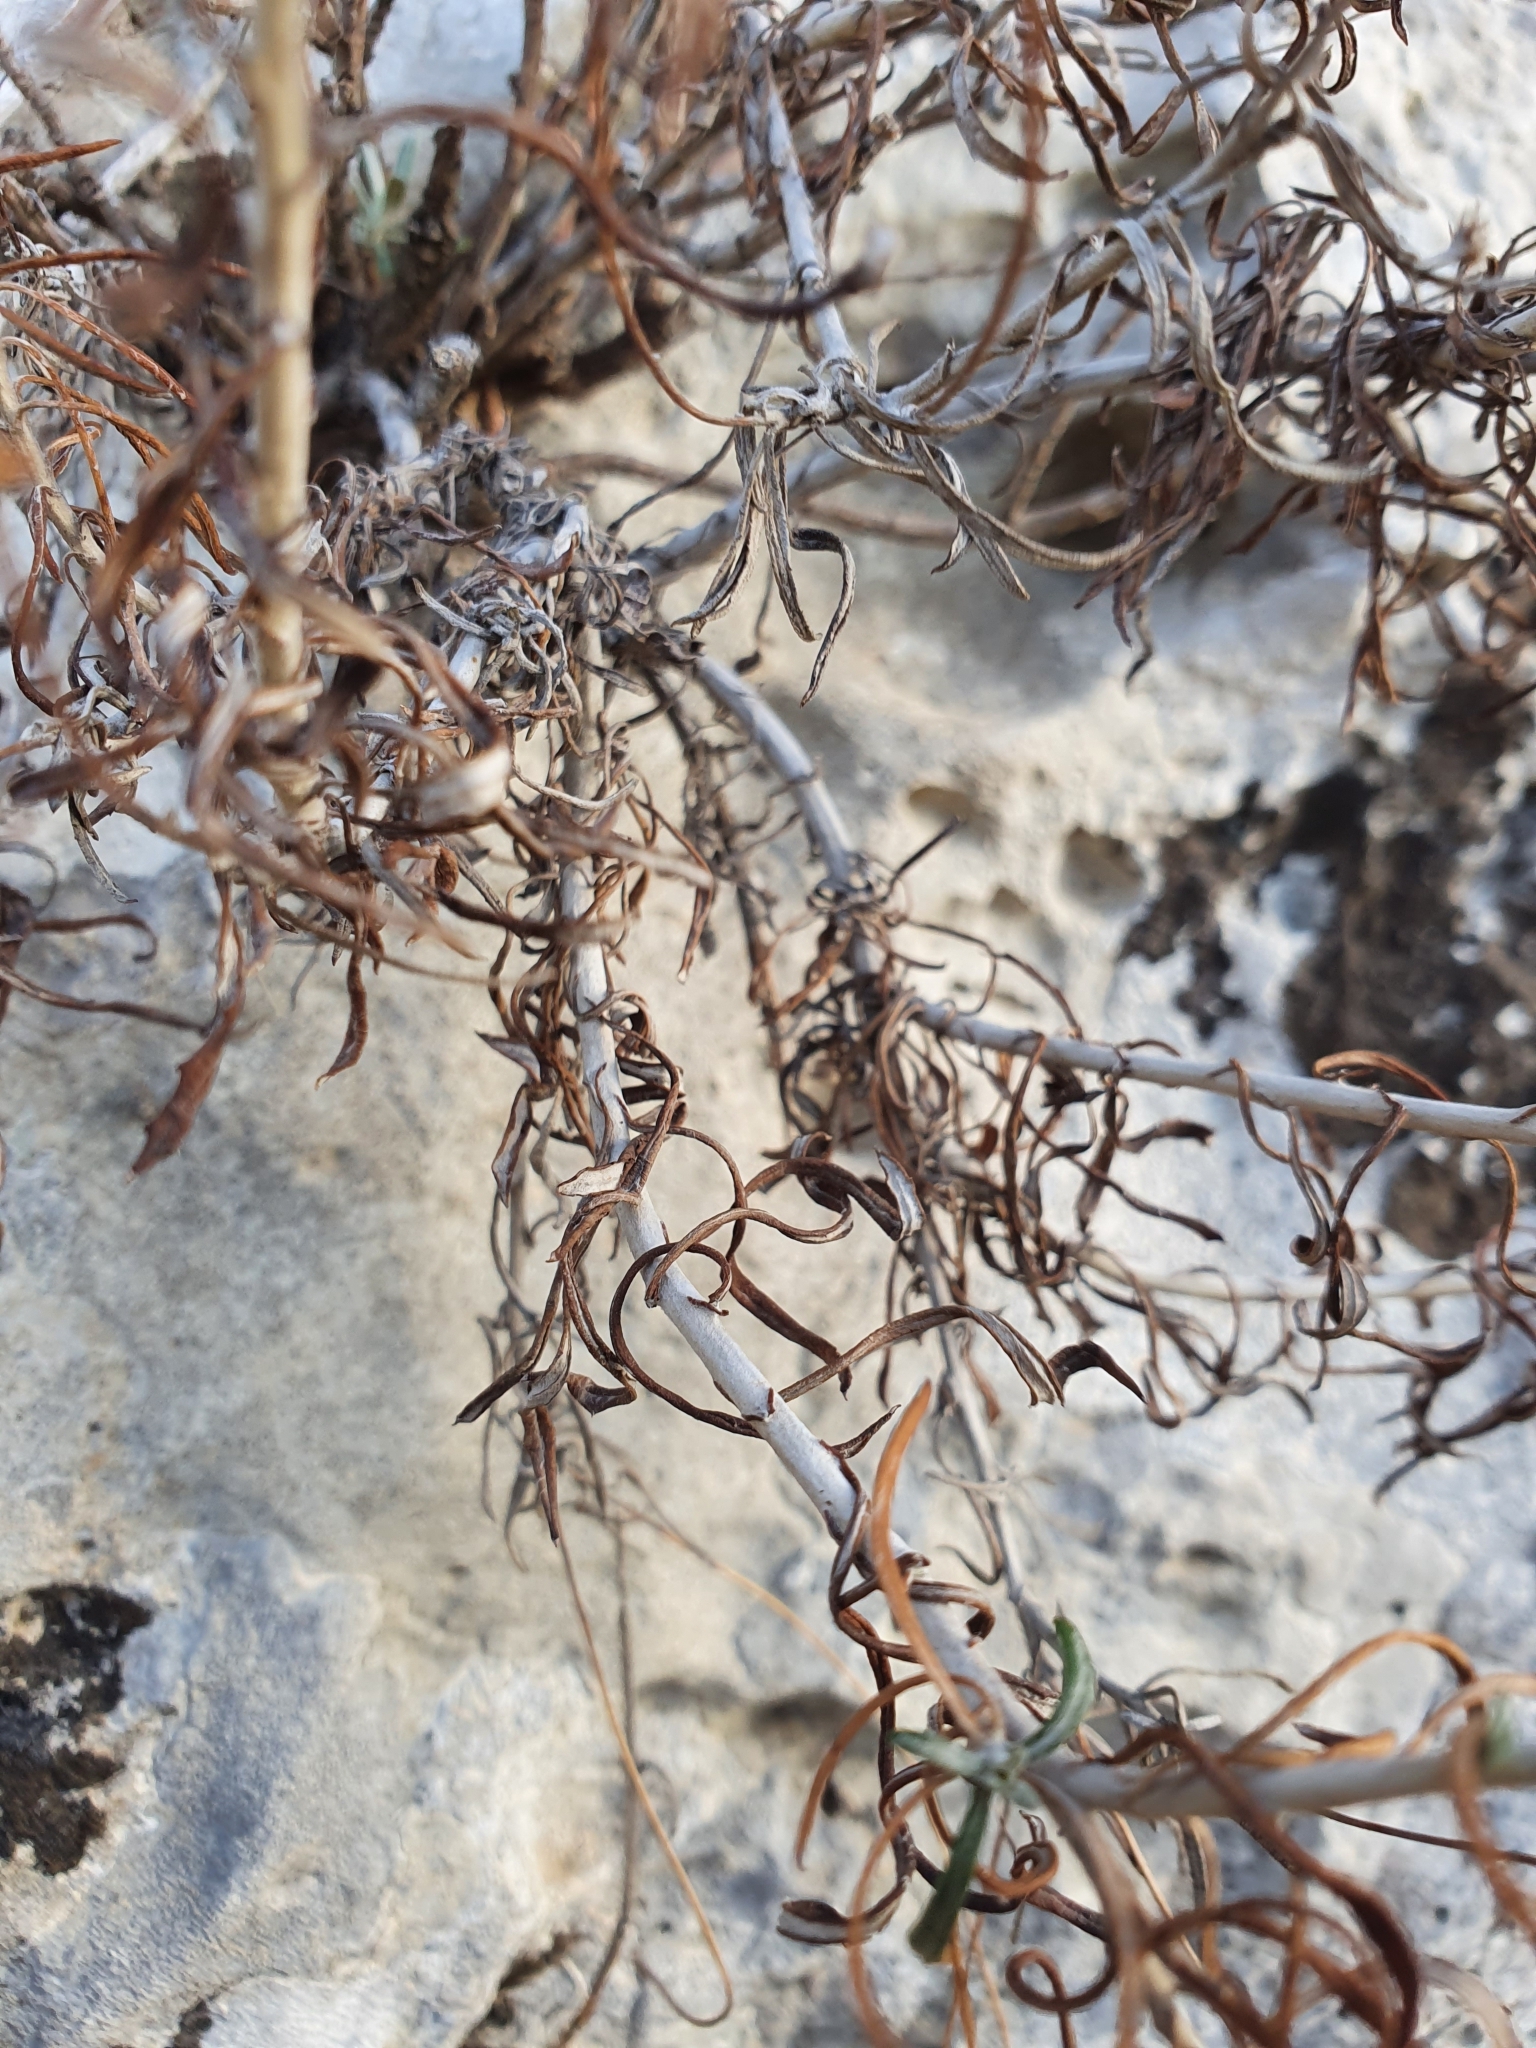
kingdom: Plantae
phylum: Tracheophyta
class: Magnoliopsida
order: Asterales
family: Asteraceae
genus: Phagnalon
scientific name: Phagnalon saxatile
